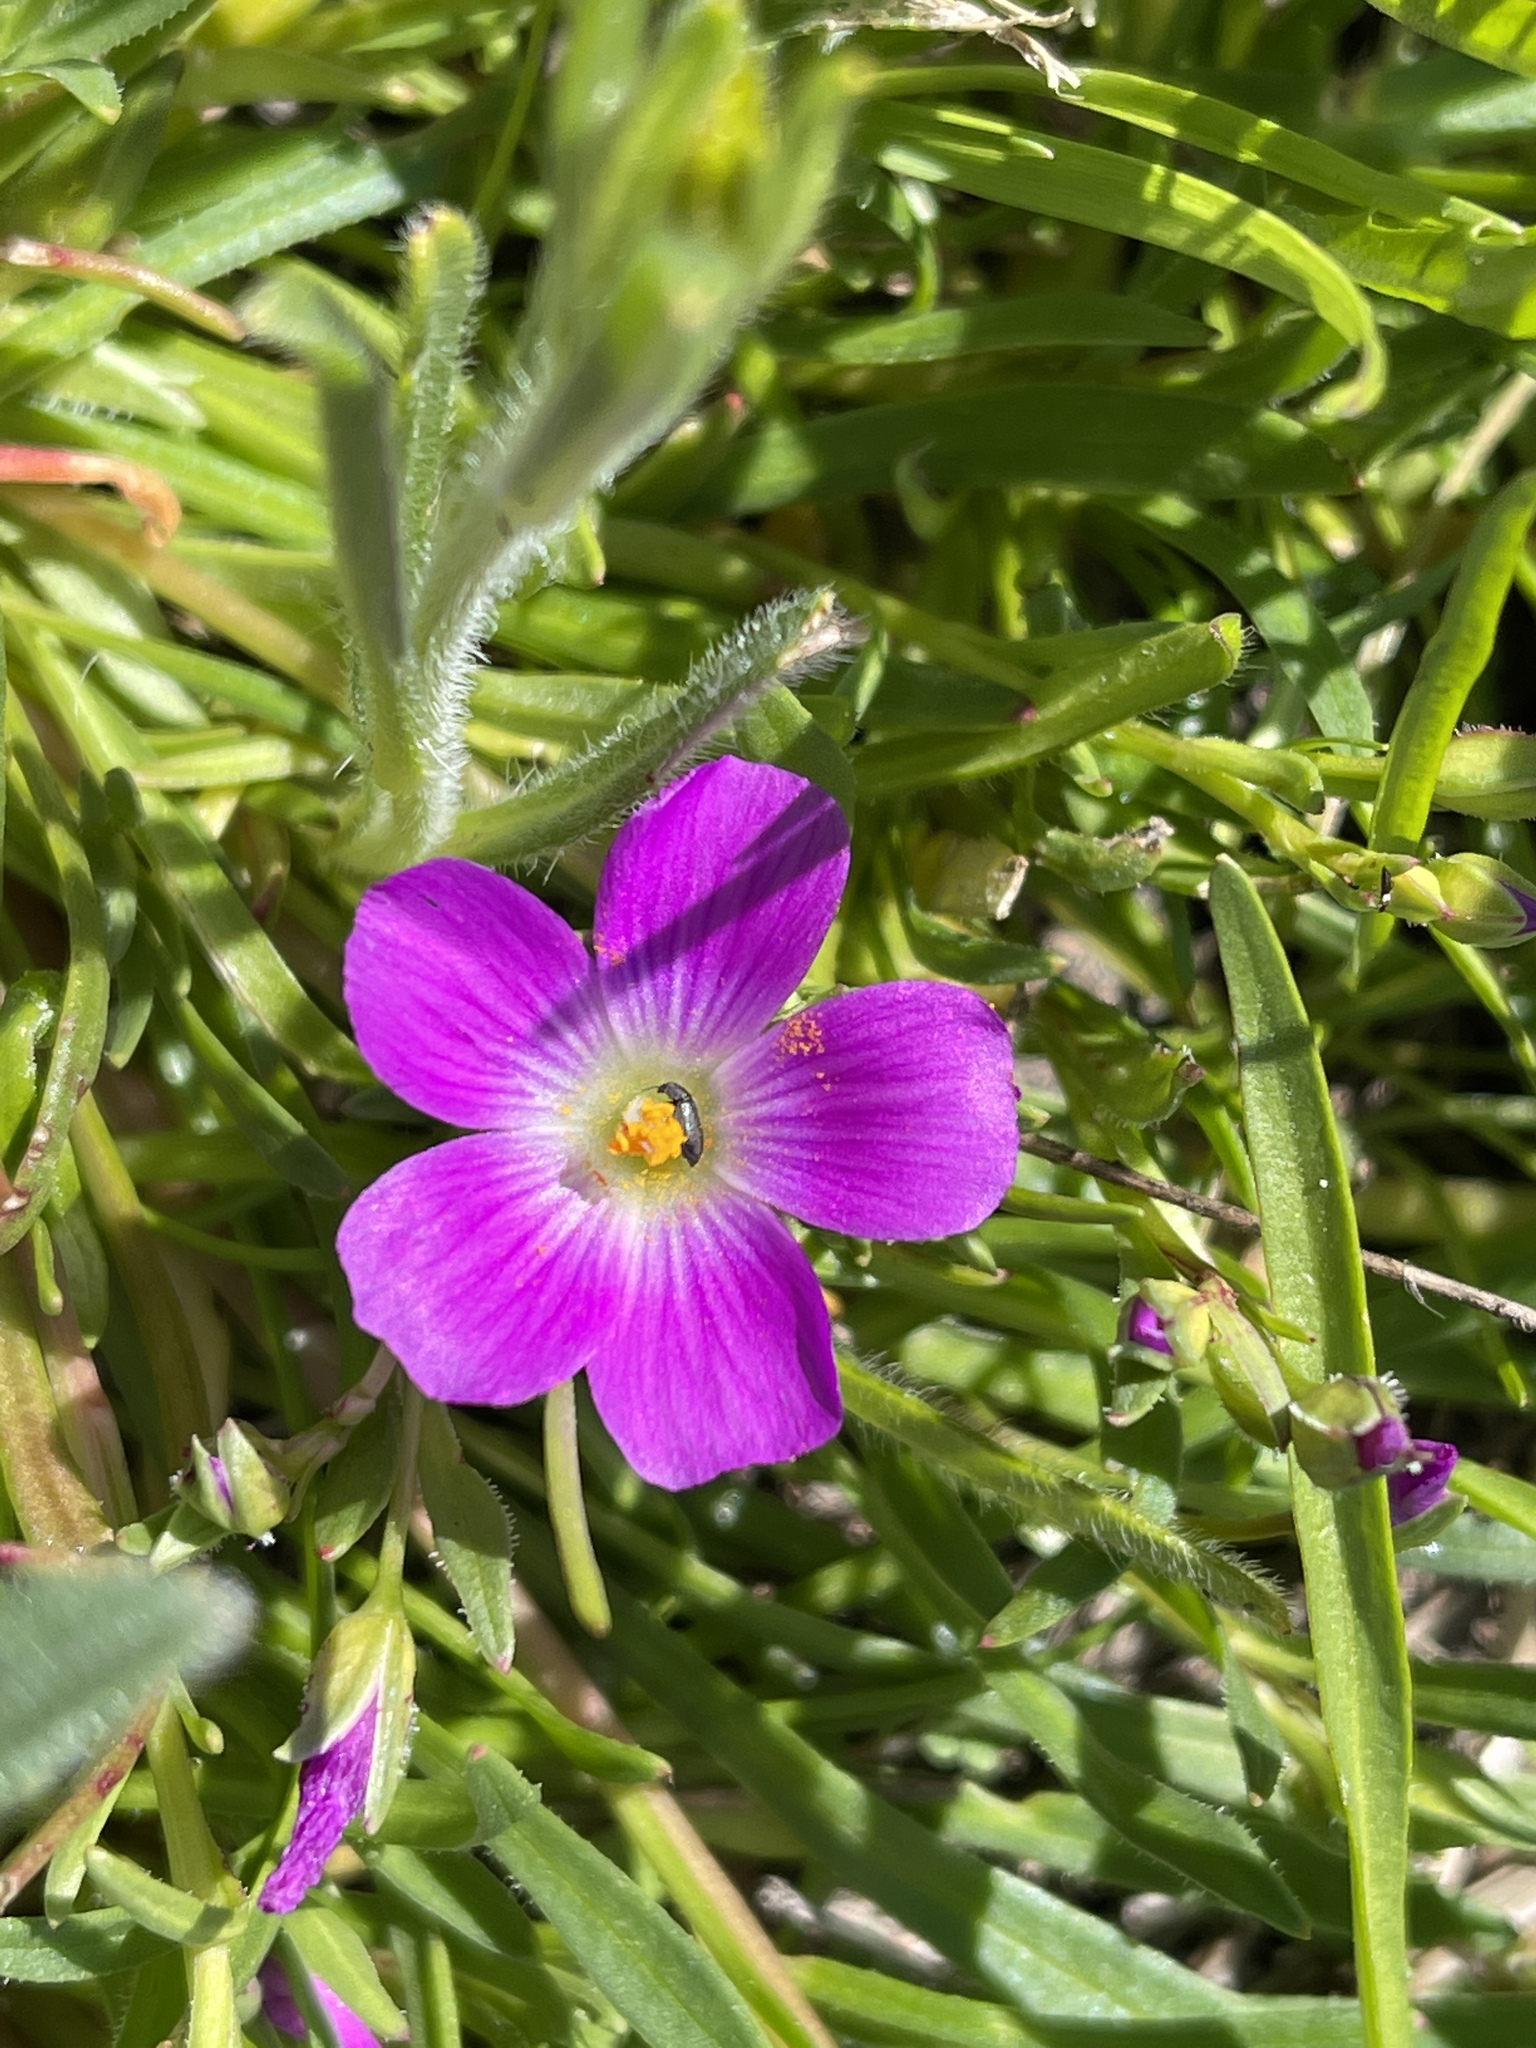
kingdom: Plantae
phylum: Tracheophyta
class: Magnoliopsida
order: Caryophyllales
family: Montiaceae
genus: Calandrinia
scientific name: Calandrinia menziesii
